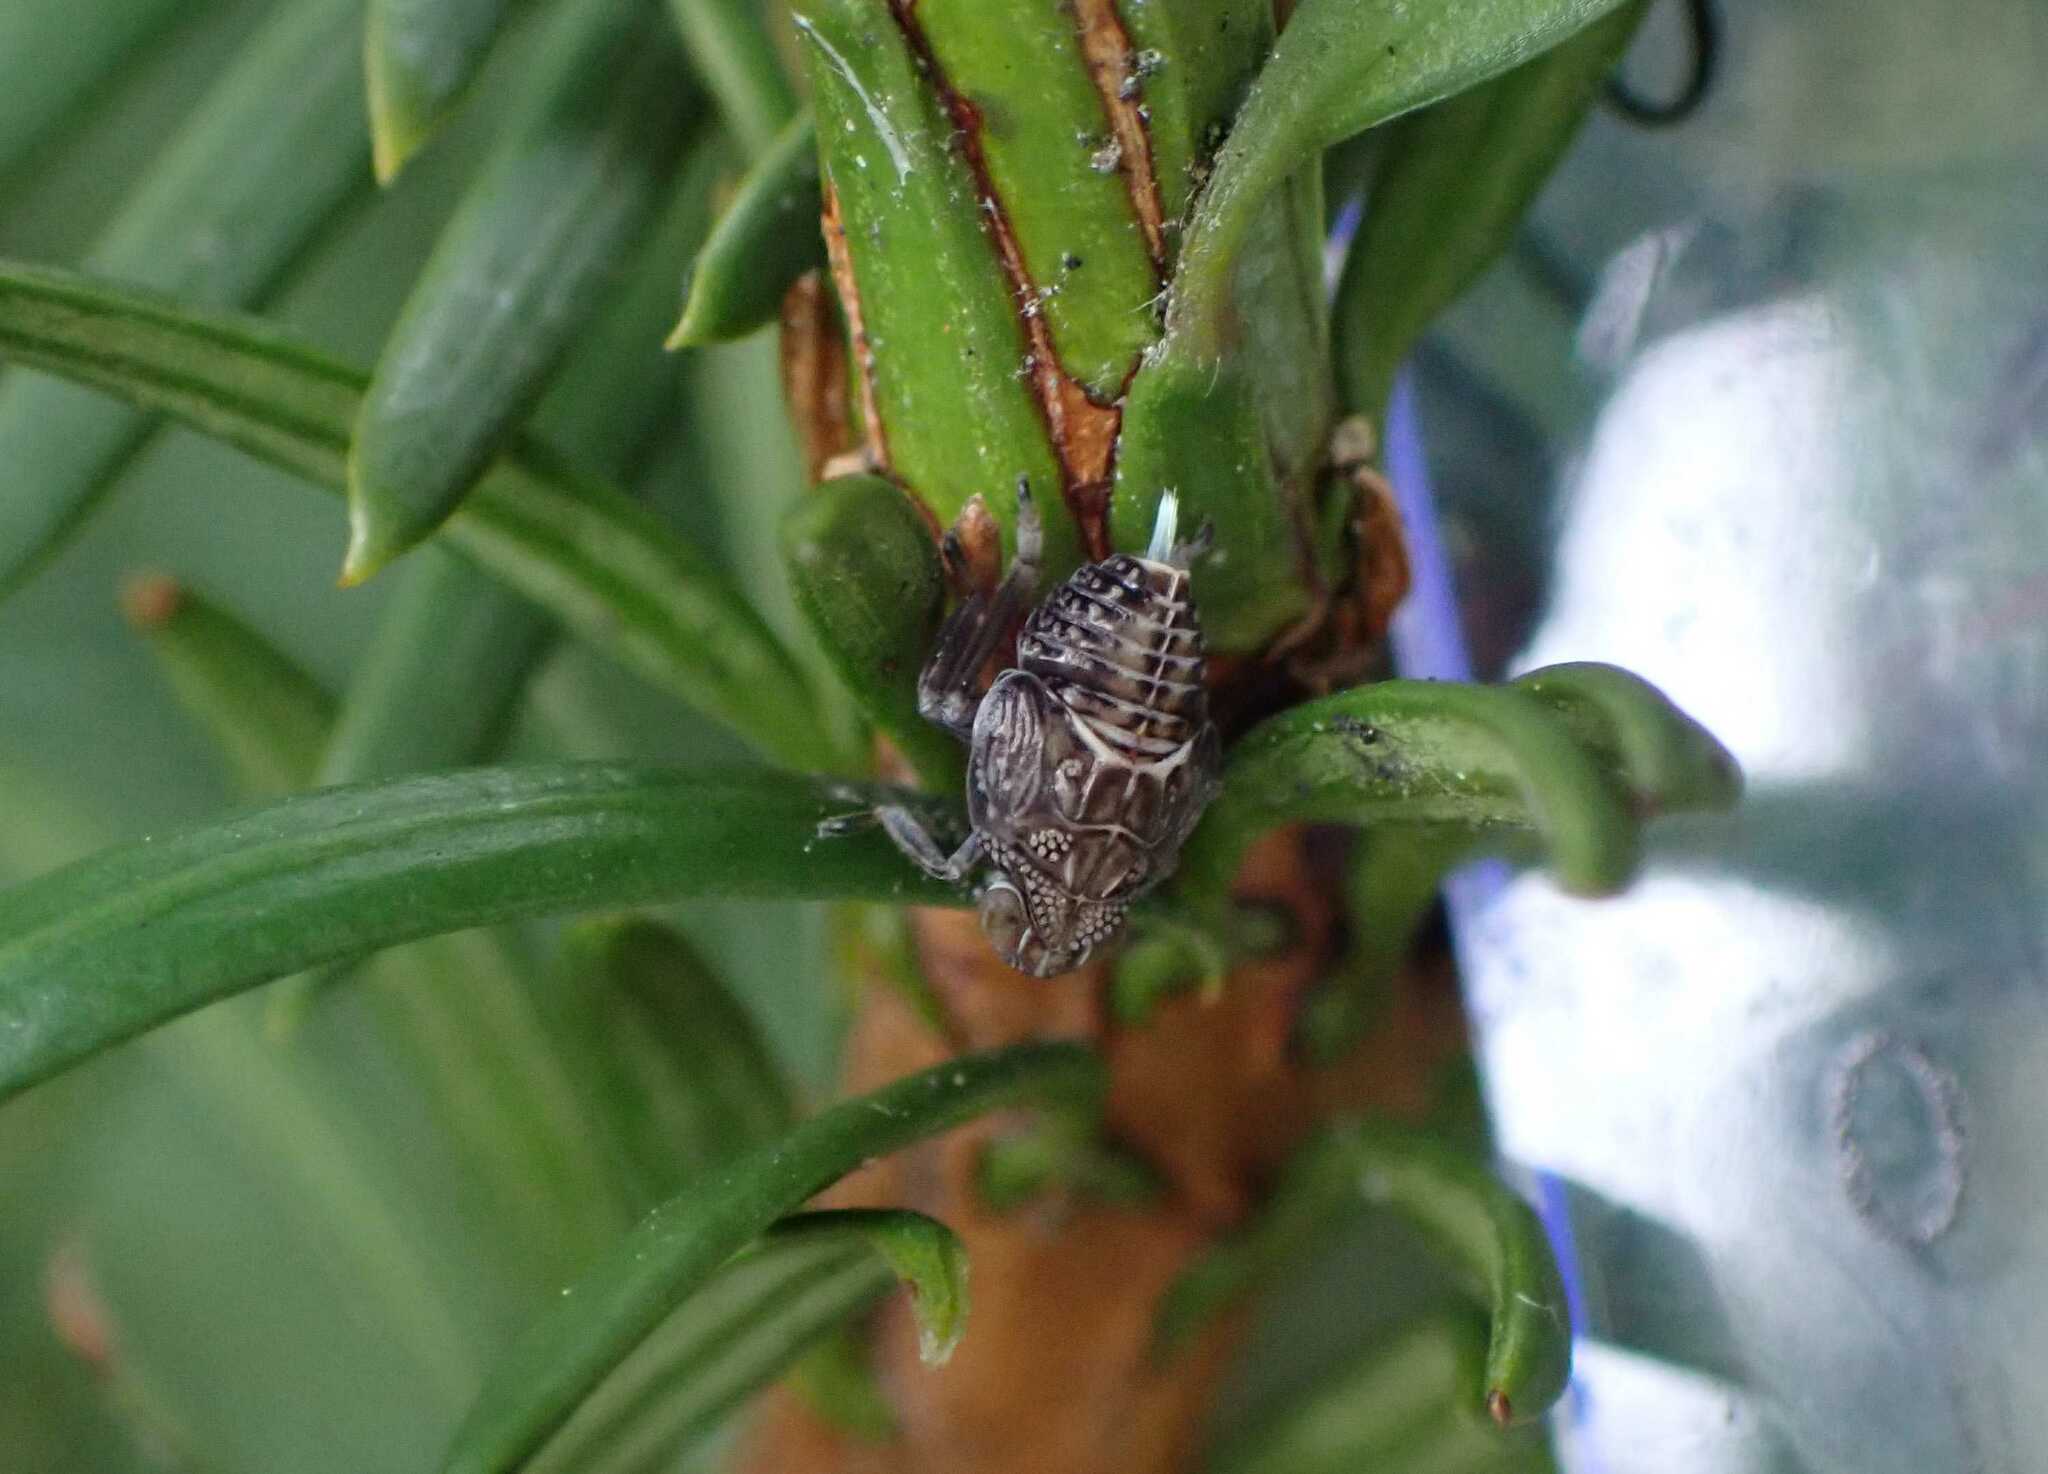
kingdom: Animalia
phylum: Arthropoda
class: Insecta
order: Hemiptera
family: Issidae
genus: Issus
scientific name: Issus coleoptratus
